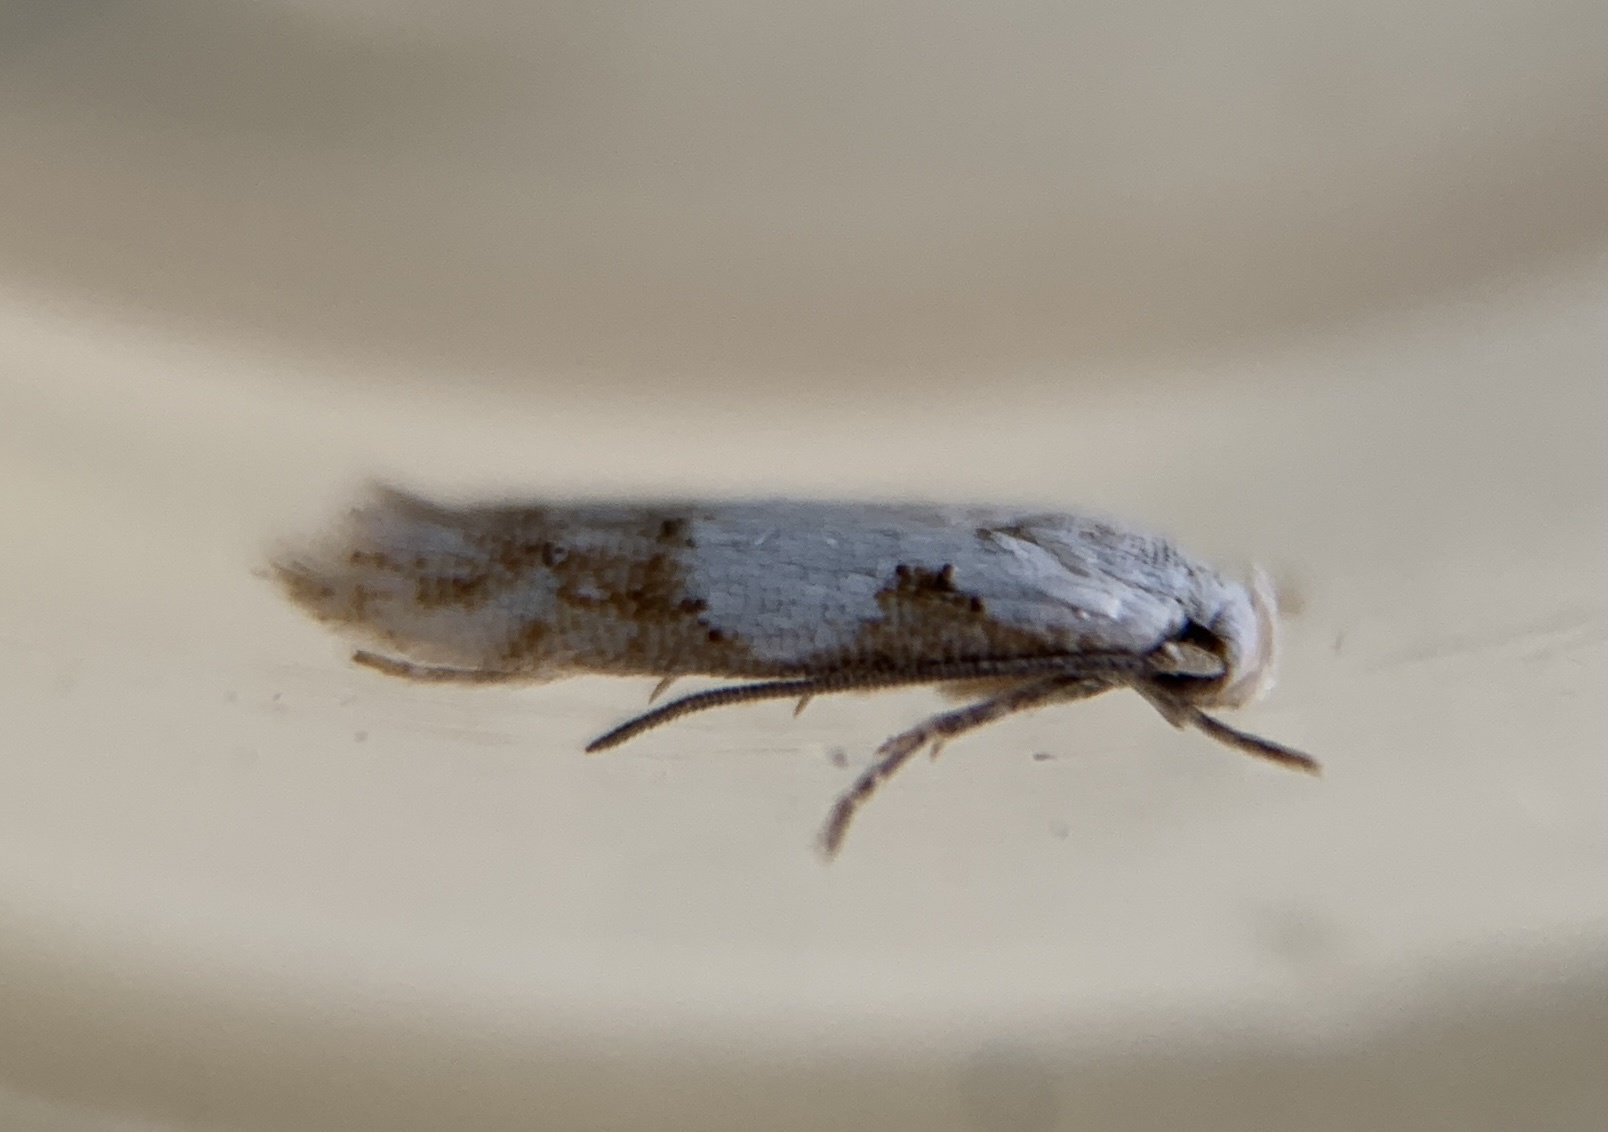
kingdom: Animalia
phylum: Arthropoda
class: Insecta
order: Lepidoptera
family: Momphidae
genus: Mompha
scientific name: Mompha circumscriptella
